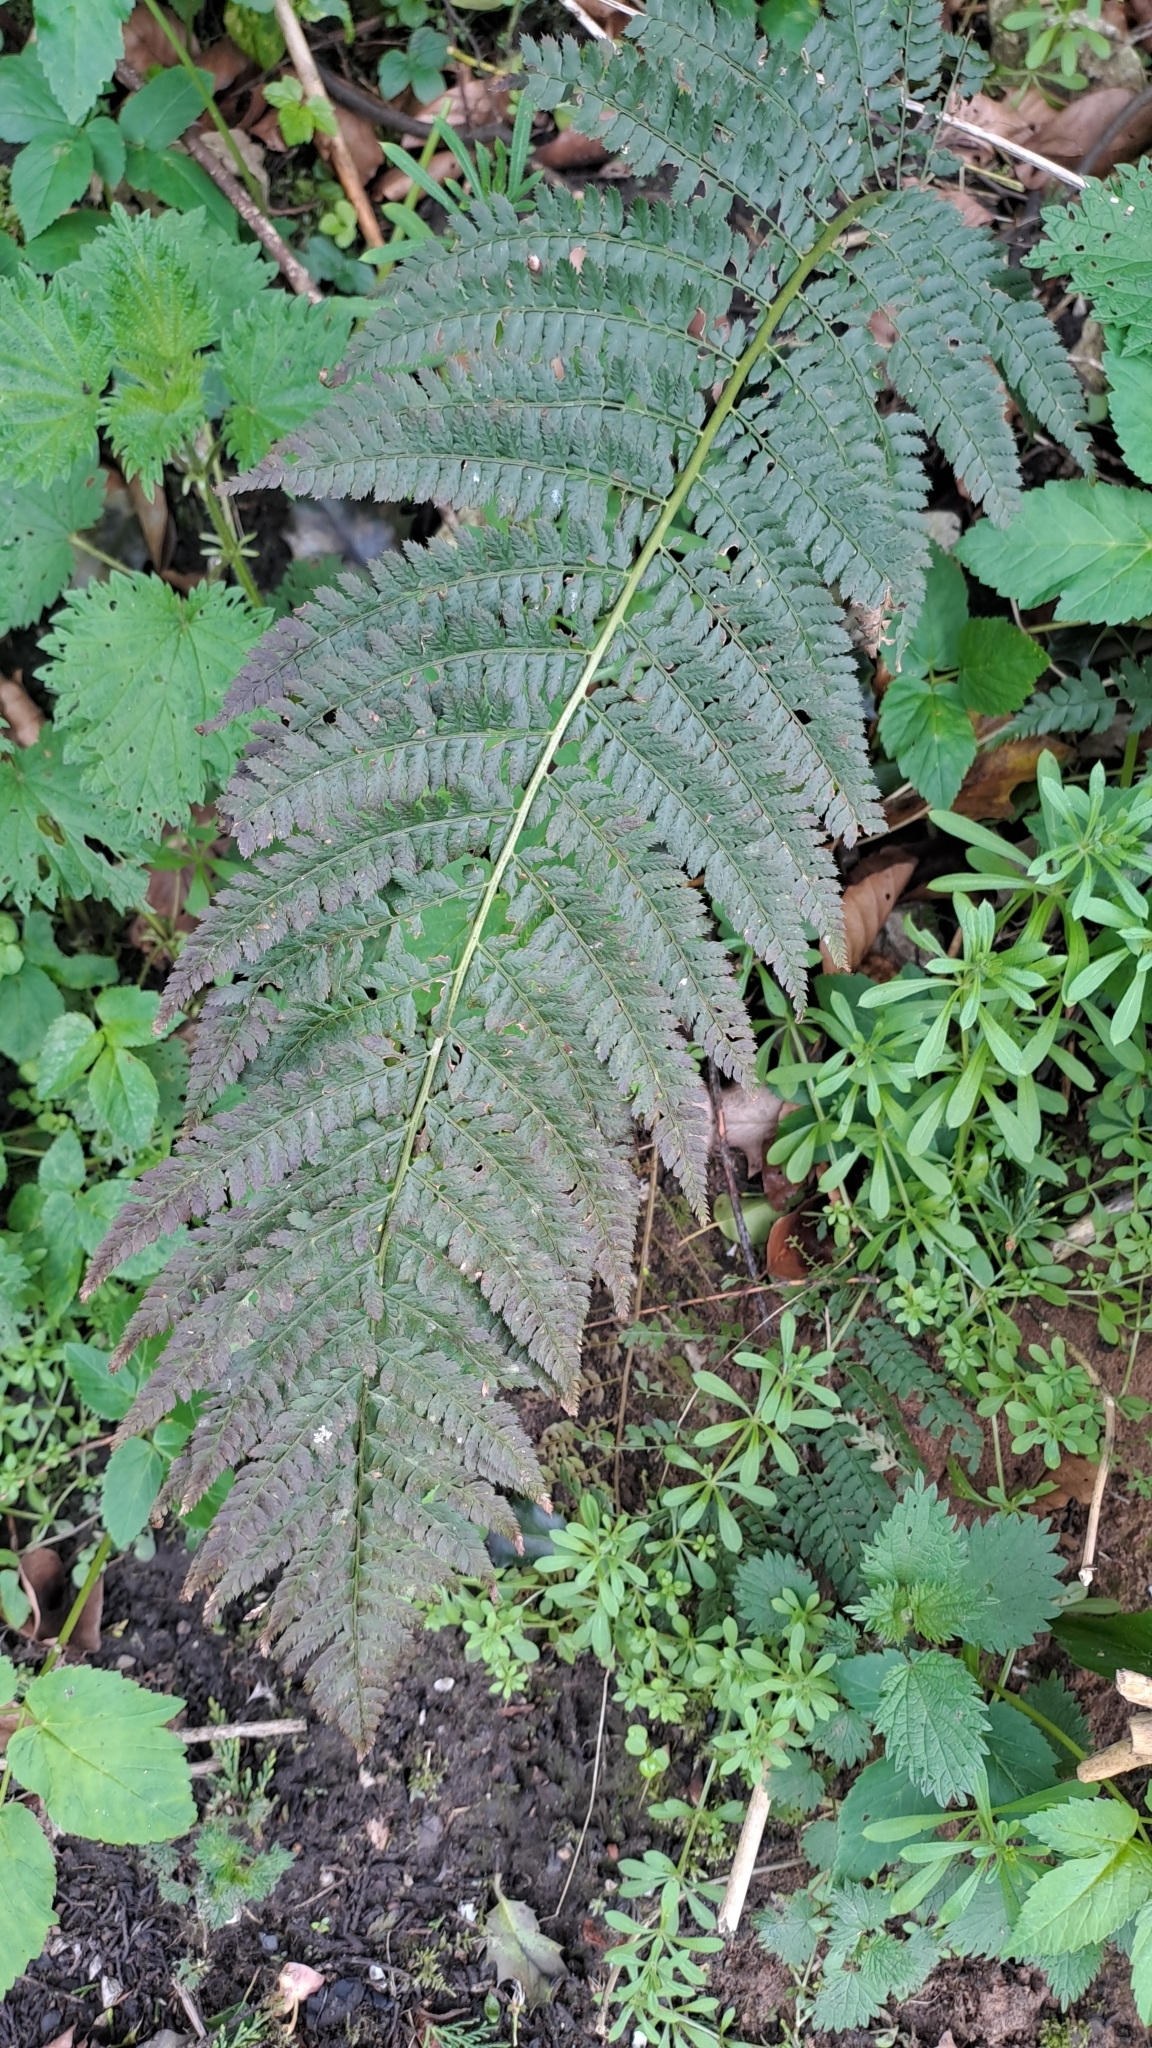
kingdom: Plantae
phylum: Tracheophyta
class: Polypodiopsida
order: Polypodiales
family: Dryopteridaceae
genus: Polystichum
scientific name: Polystichum setiferum
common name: Soft shield-fern
